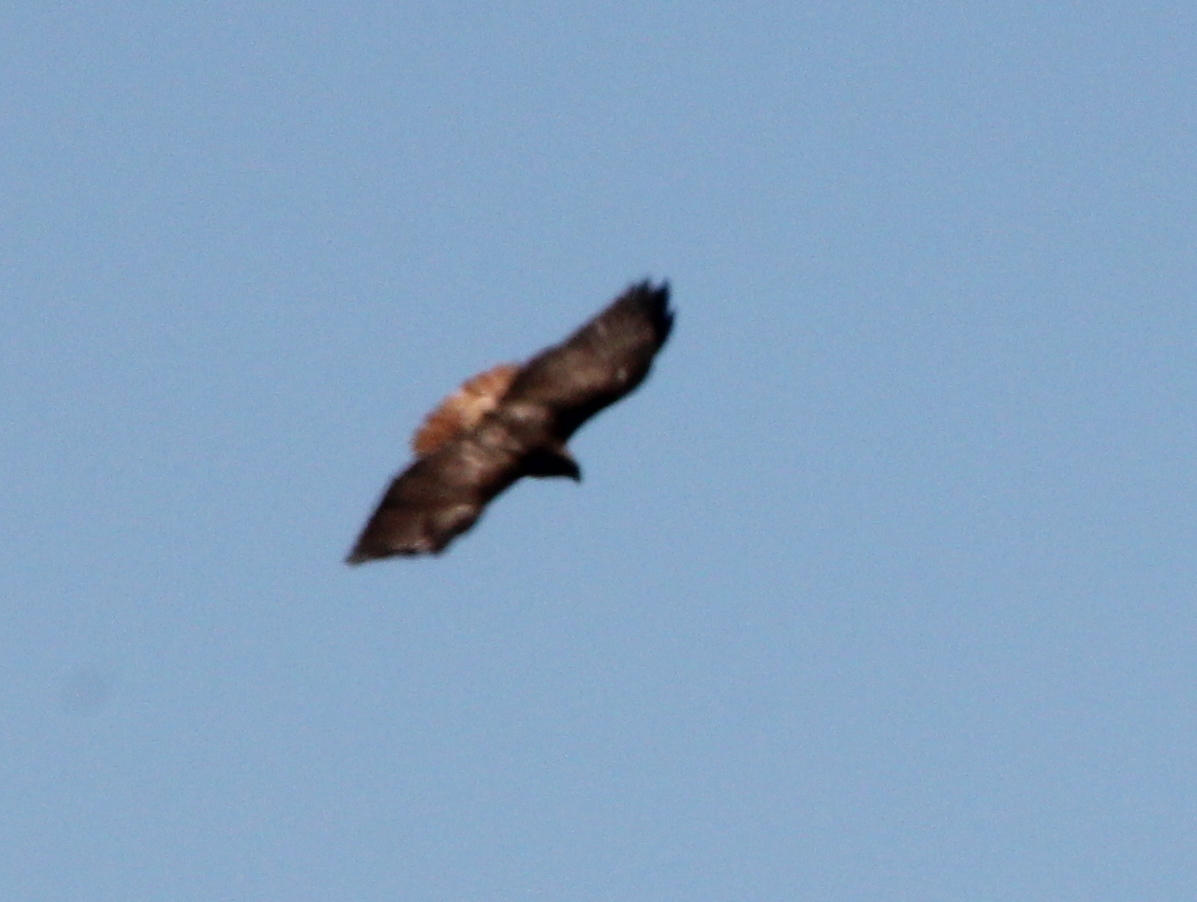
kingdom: Animalia
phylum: Chordata
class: Aves
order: Accipitriformes
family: Accipitridae
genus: Buteo
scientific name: Buteo jamaicensis
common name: Red-tailed hawk
